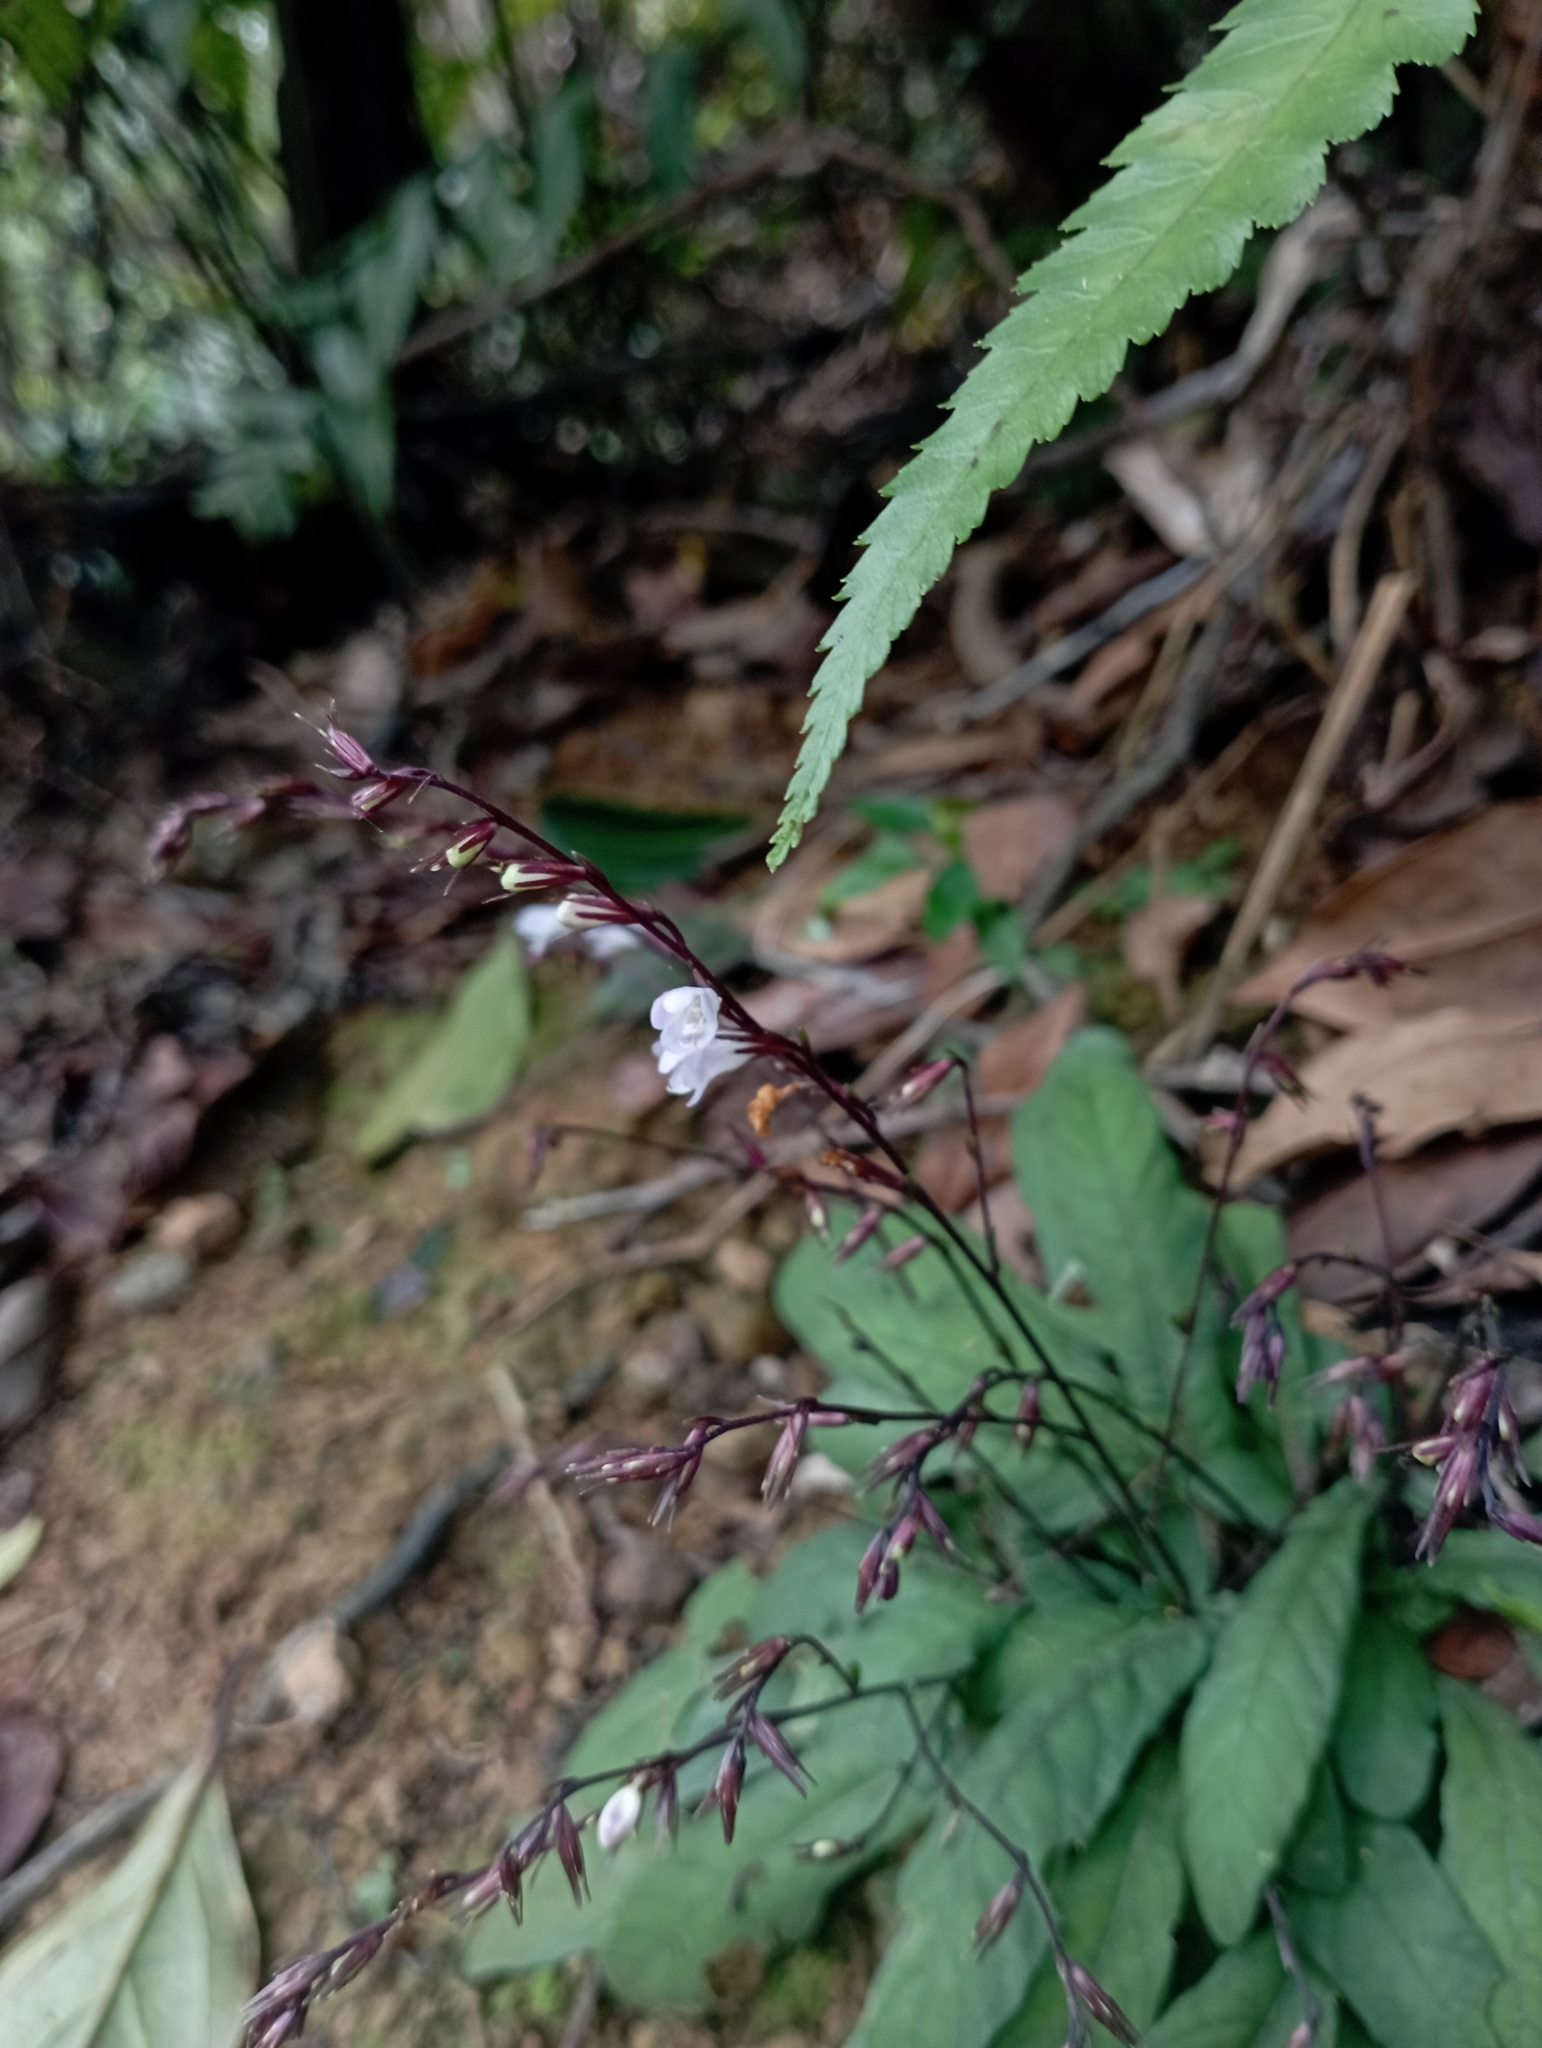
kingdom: Plantae
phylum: Tracheophyta
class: Magnoliopsida
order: Lamiales
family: Acanthaceae
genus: Staurogyne
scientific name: Staurogyne concinnula
